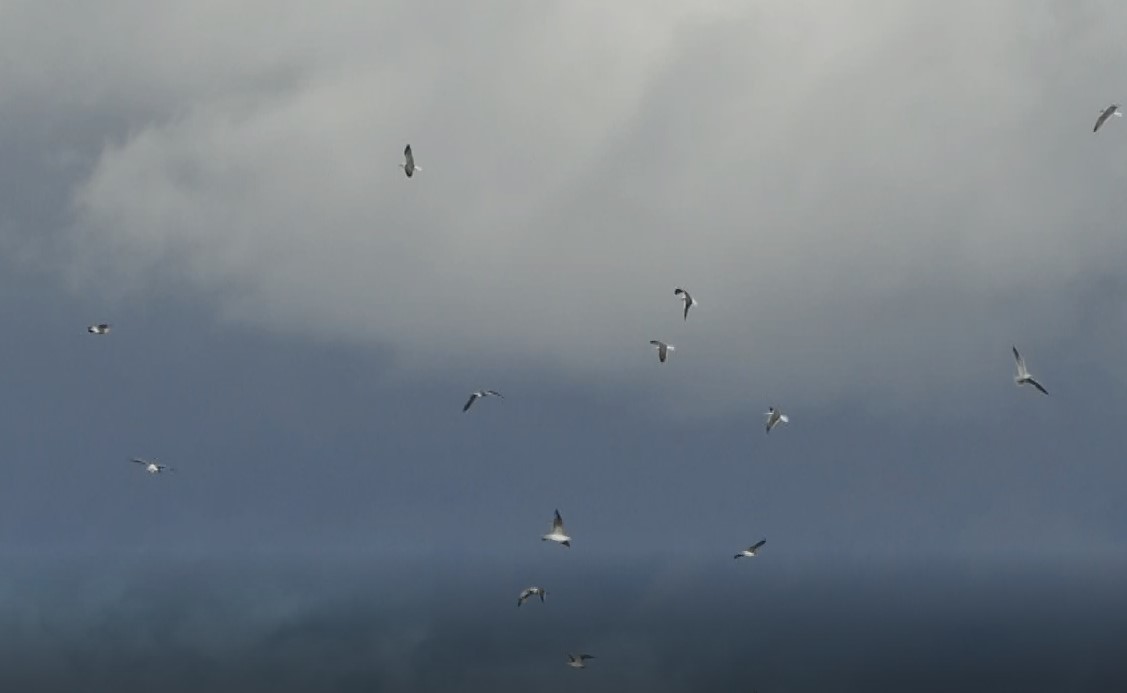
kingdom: Animalia
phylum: Chordata
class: Aves
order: Charadriiformes
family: Laridae
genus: Larus
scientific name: Larus fuscus
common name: Lesser black-backed gull
